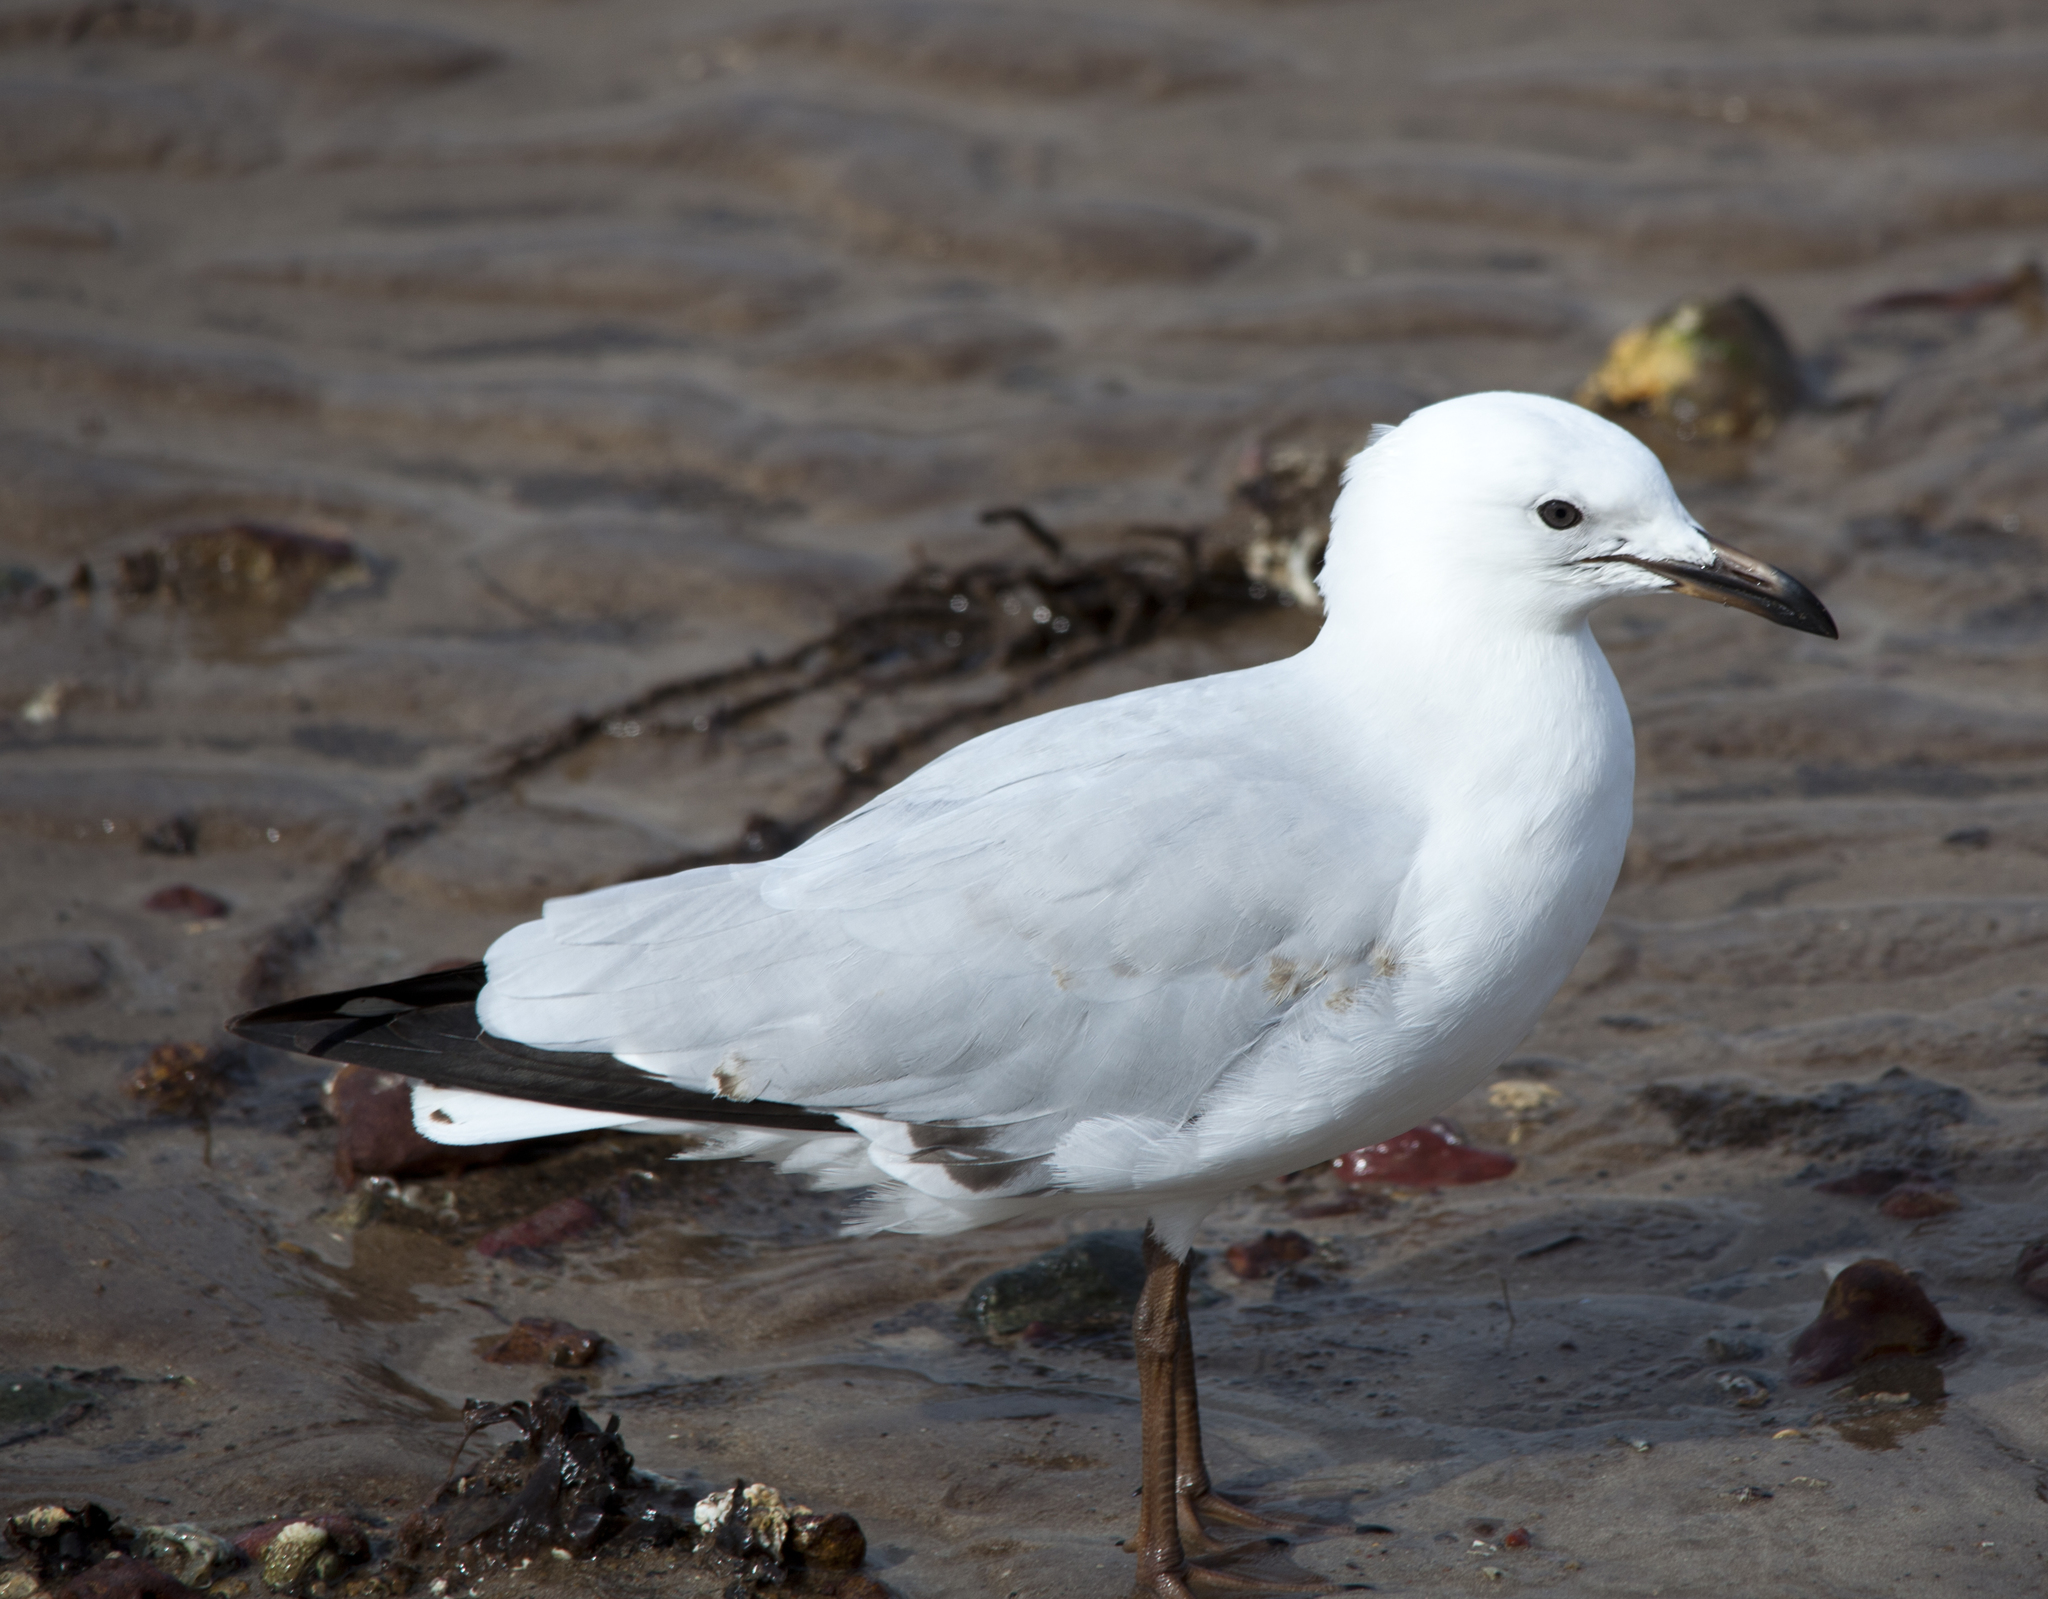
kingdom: Animalia
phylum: Chordata
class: Aves
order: Charadriiformes
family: Laridae
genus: Chroicocephalus
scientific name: Chroicocephalus novaehollandiae
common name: Silver gull
